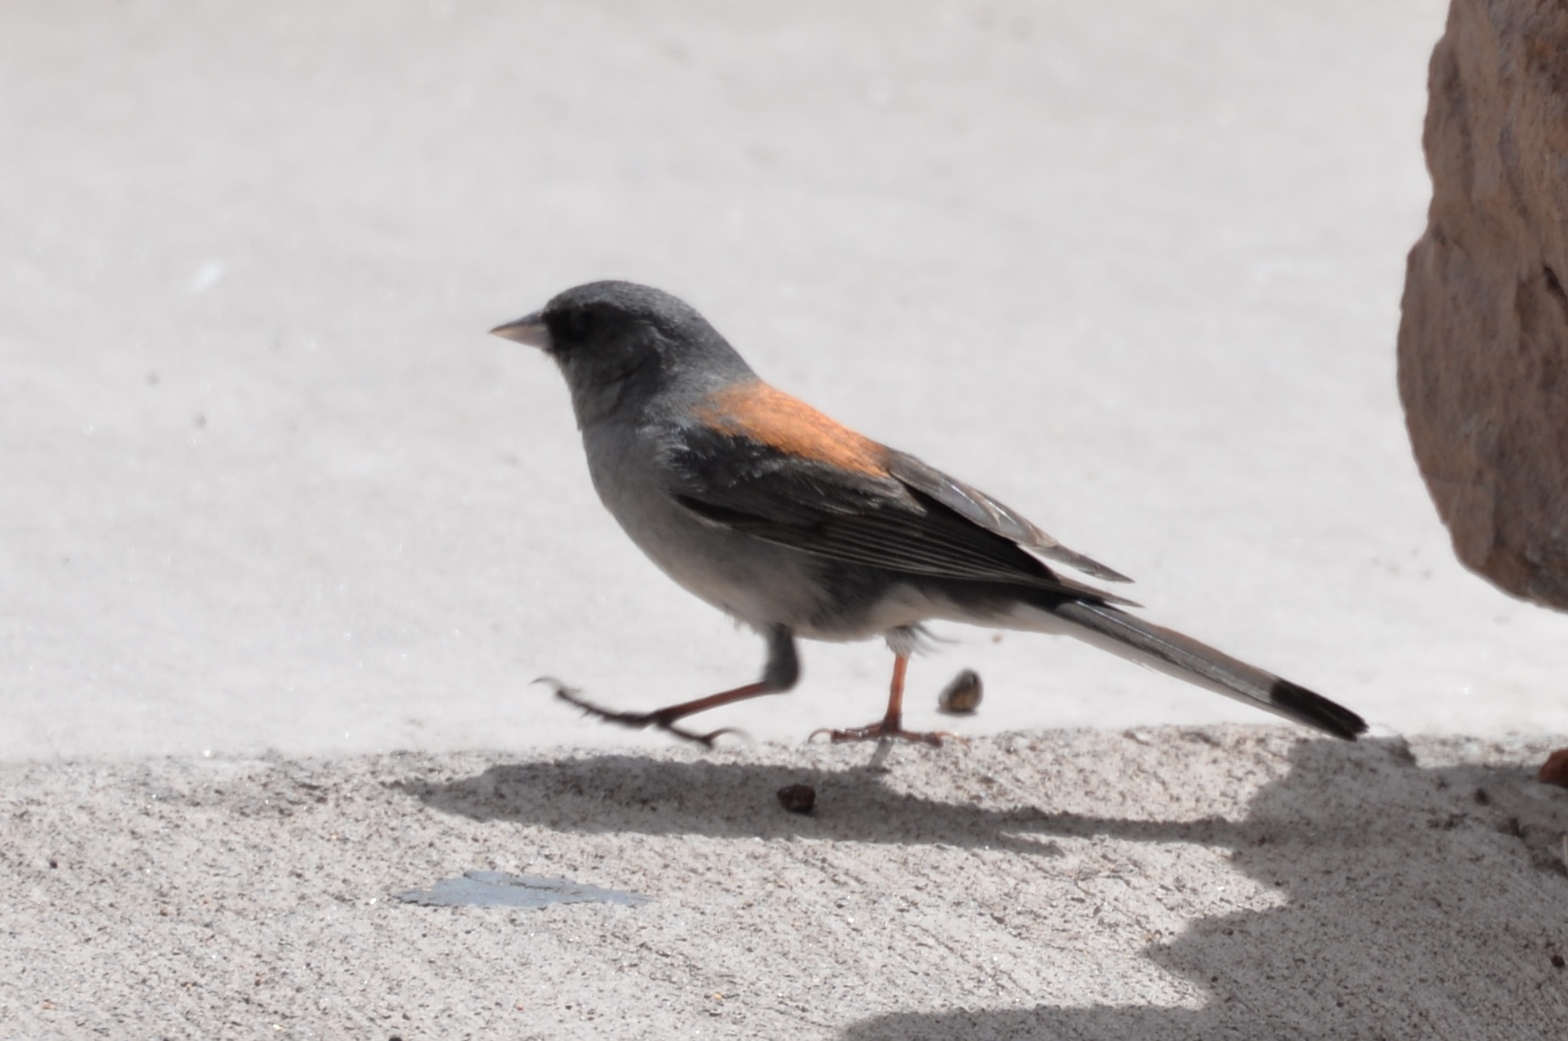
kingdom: Animalia
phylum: Chordata
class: Aves
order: Passeriformes
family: Passerellidae
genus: Junco
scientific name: Junco hyemalis
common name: Dark-eyed junco
